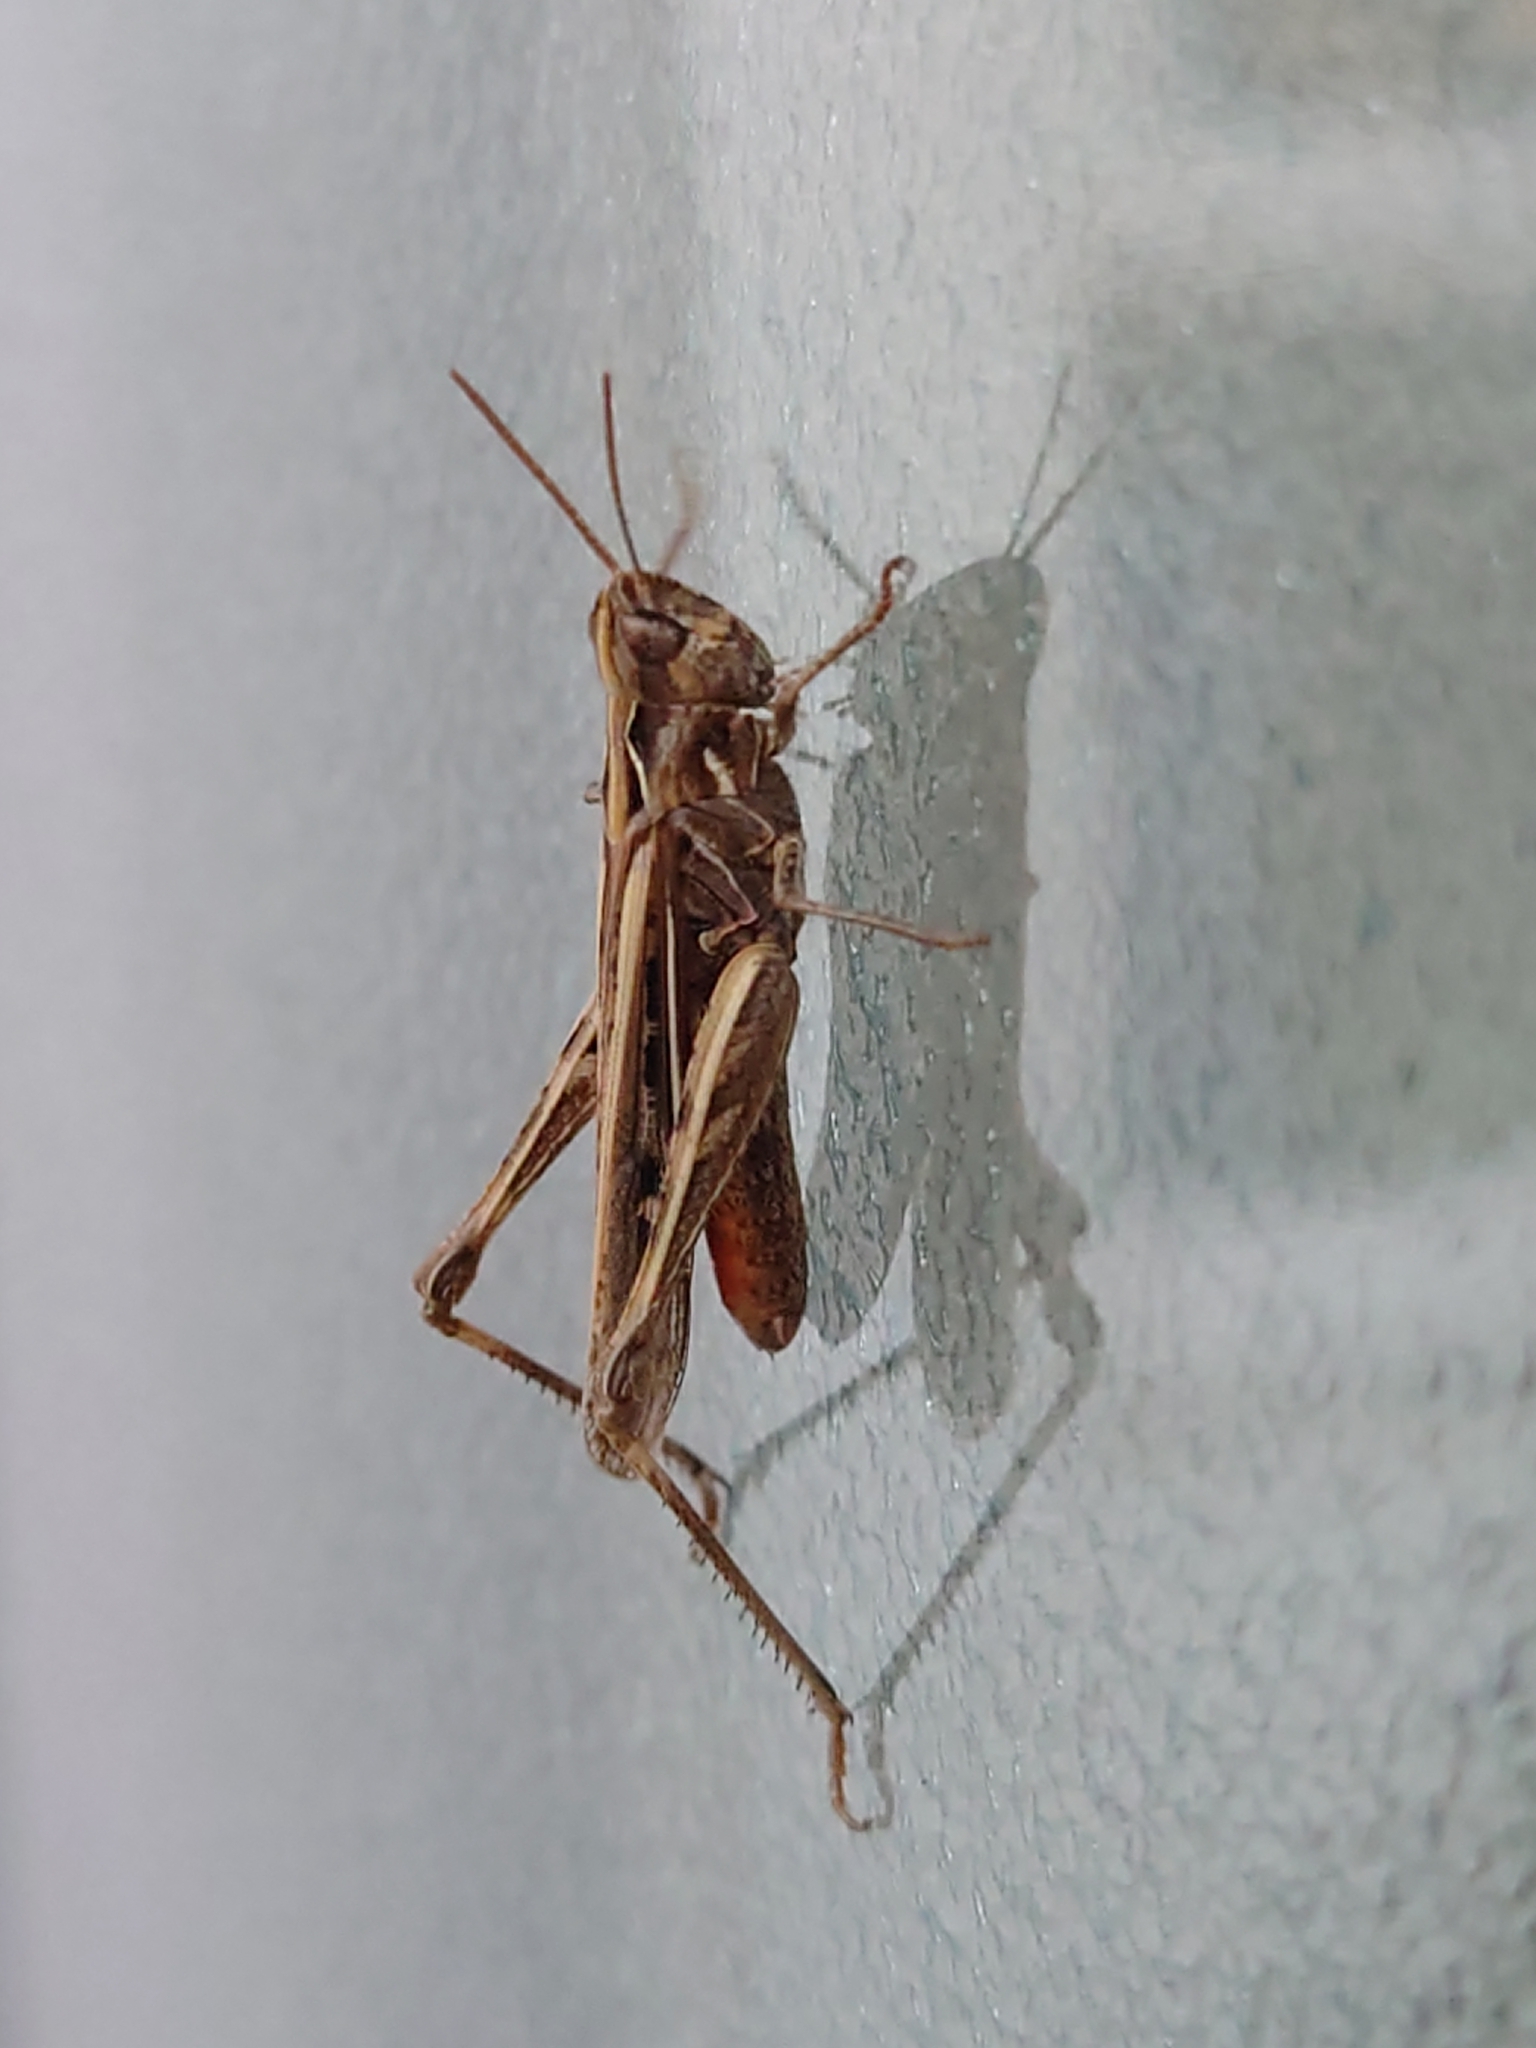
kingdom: Animalia
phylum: Arthropoda
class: Insecta
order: Orthoptera
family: Acrididae
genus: Chorthippus
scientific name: Chorthippus brunneus
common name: Field grasshopper
